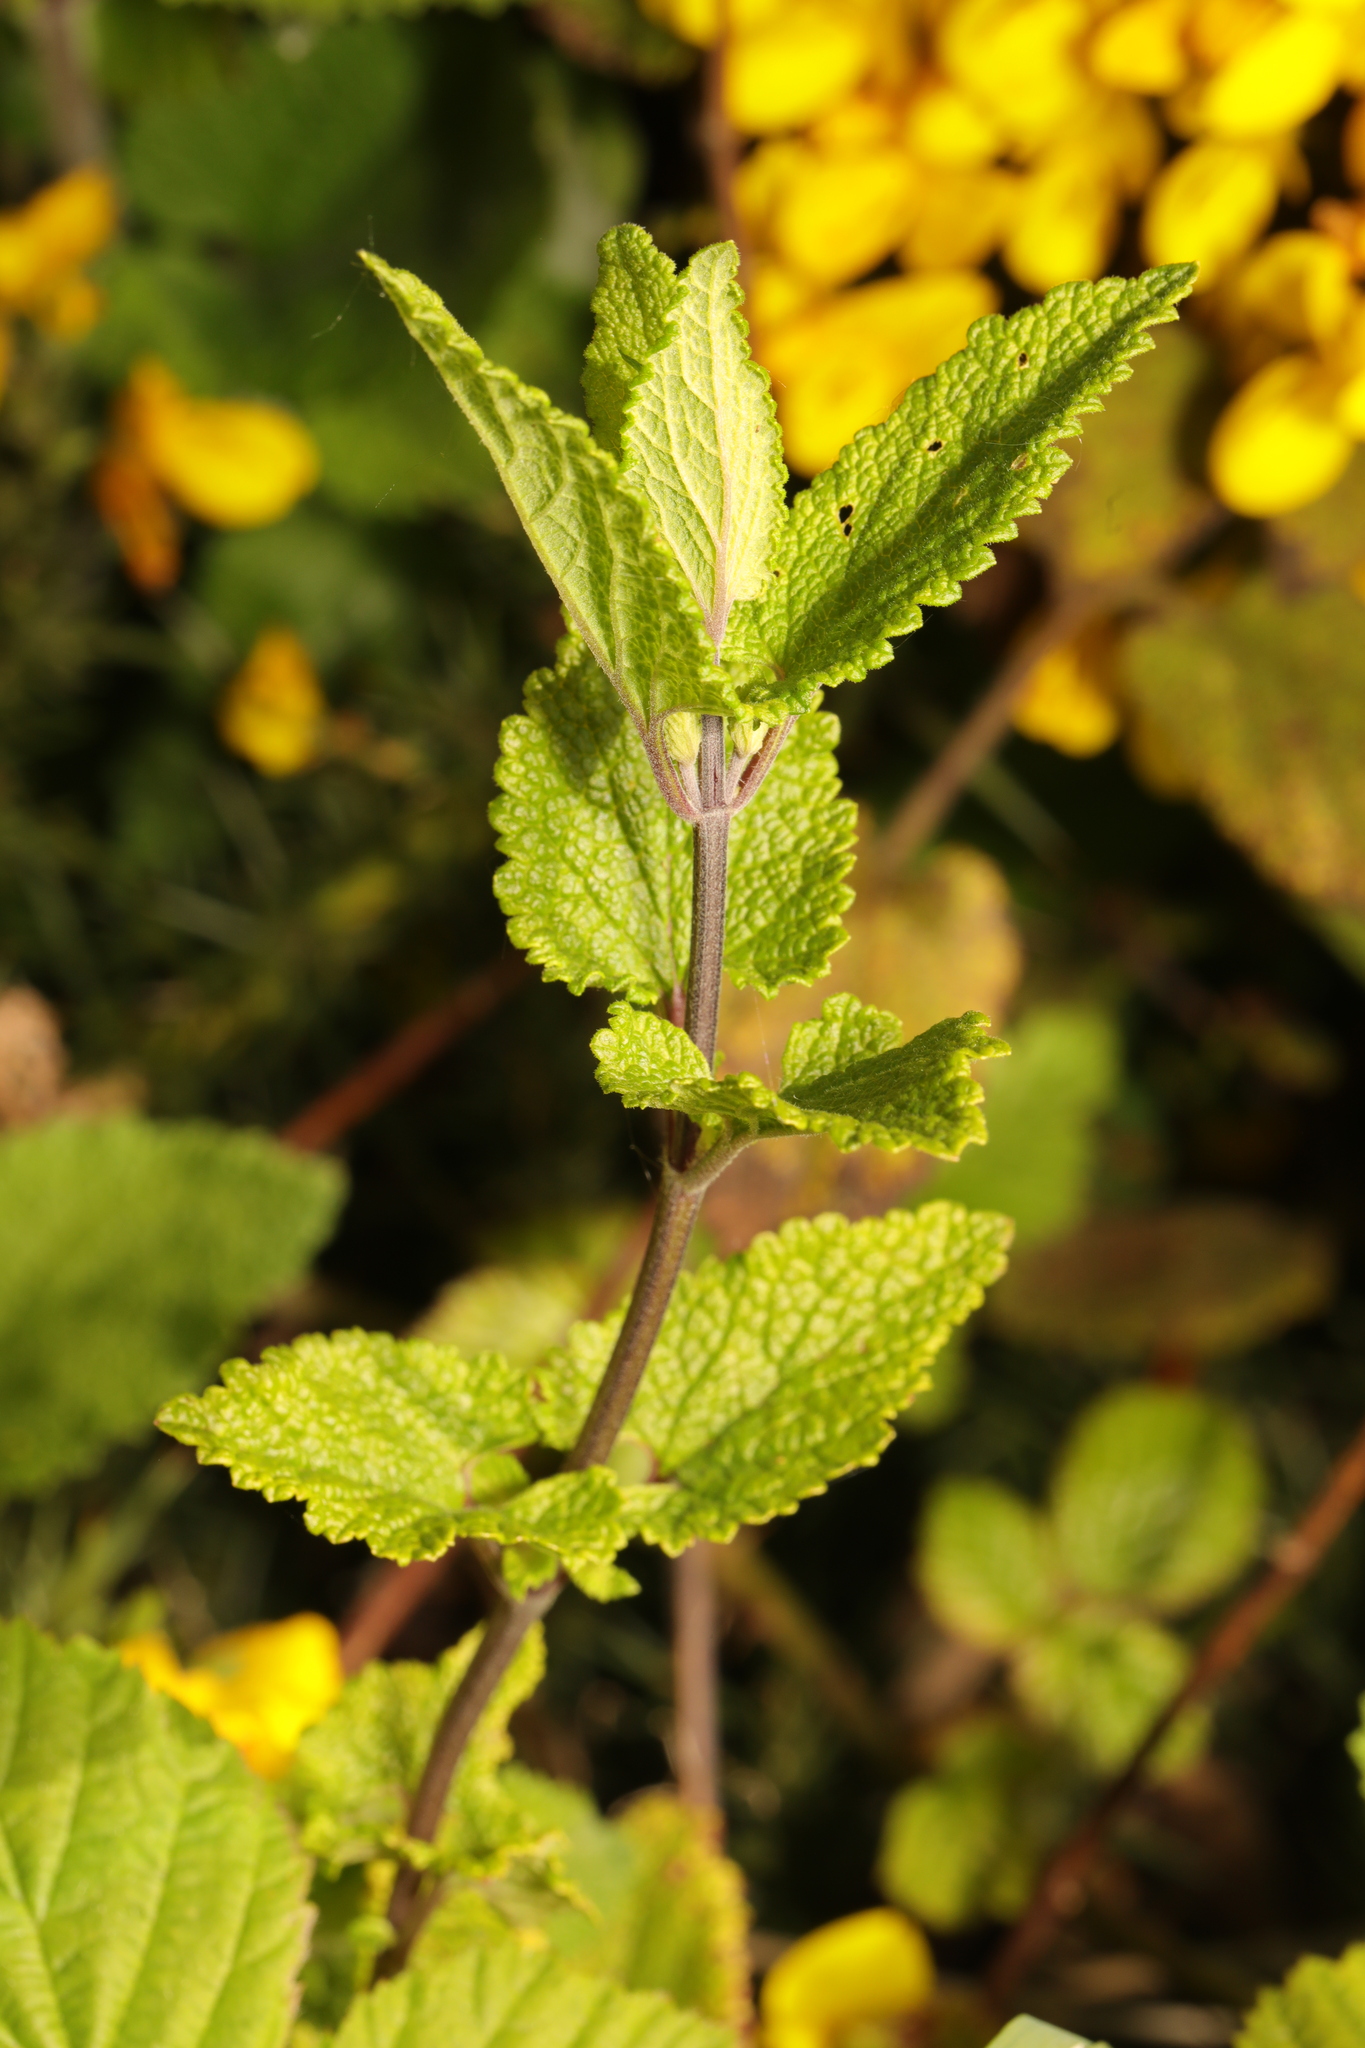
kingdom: Plantae
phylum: Tracheophyta
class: Magnoliopsida
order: Lamiales
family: Lamiaceae
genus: Teucrium
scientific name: Teucrium scorodonia
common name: Woodland germander
